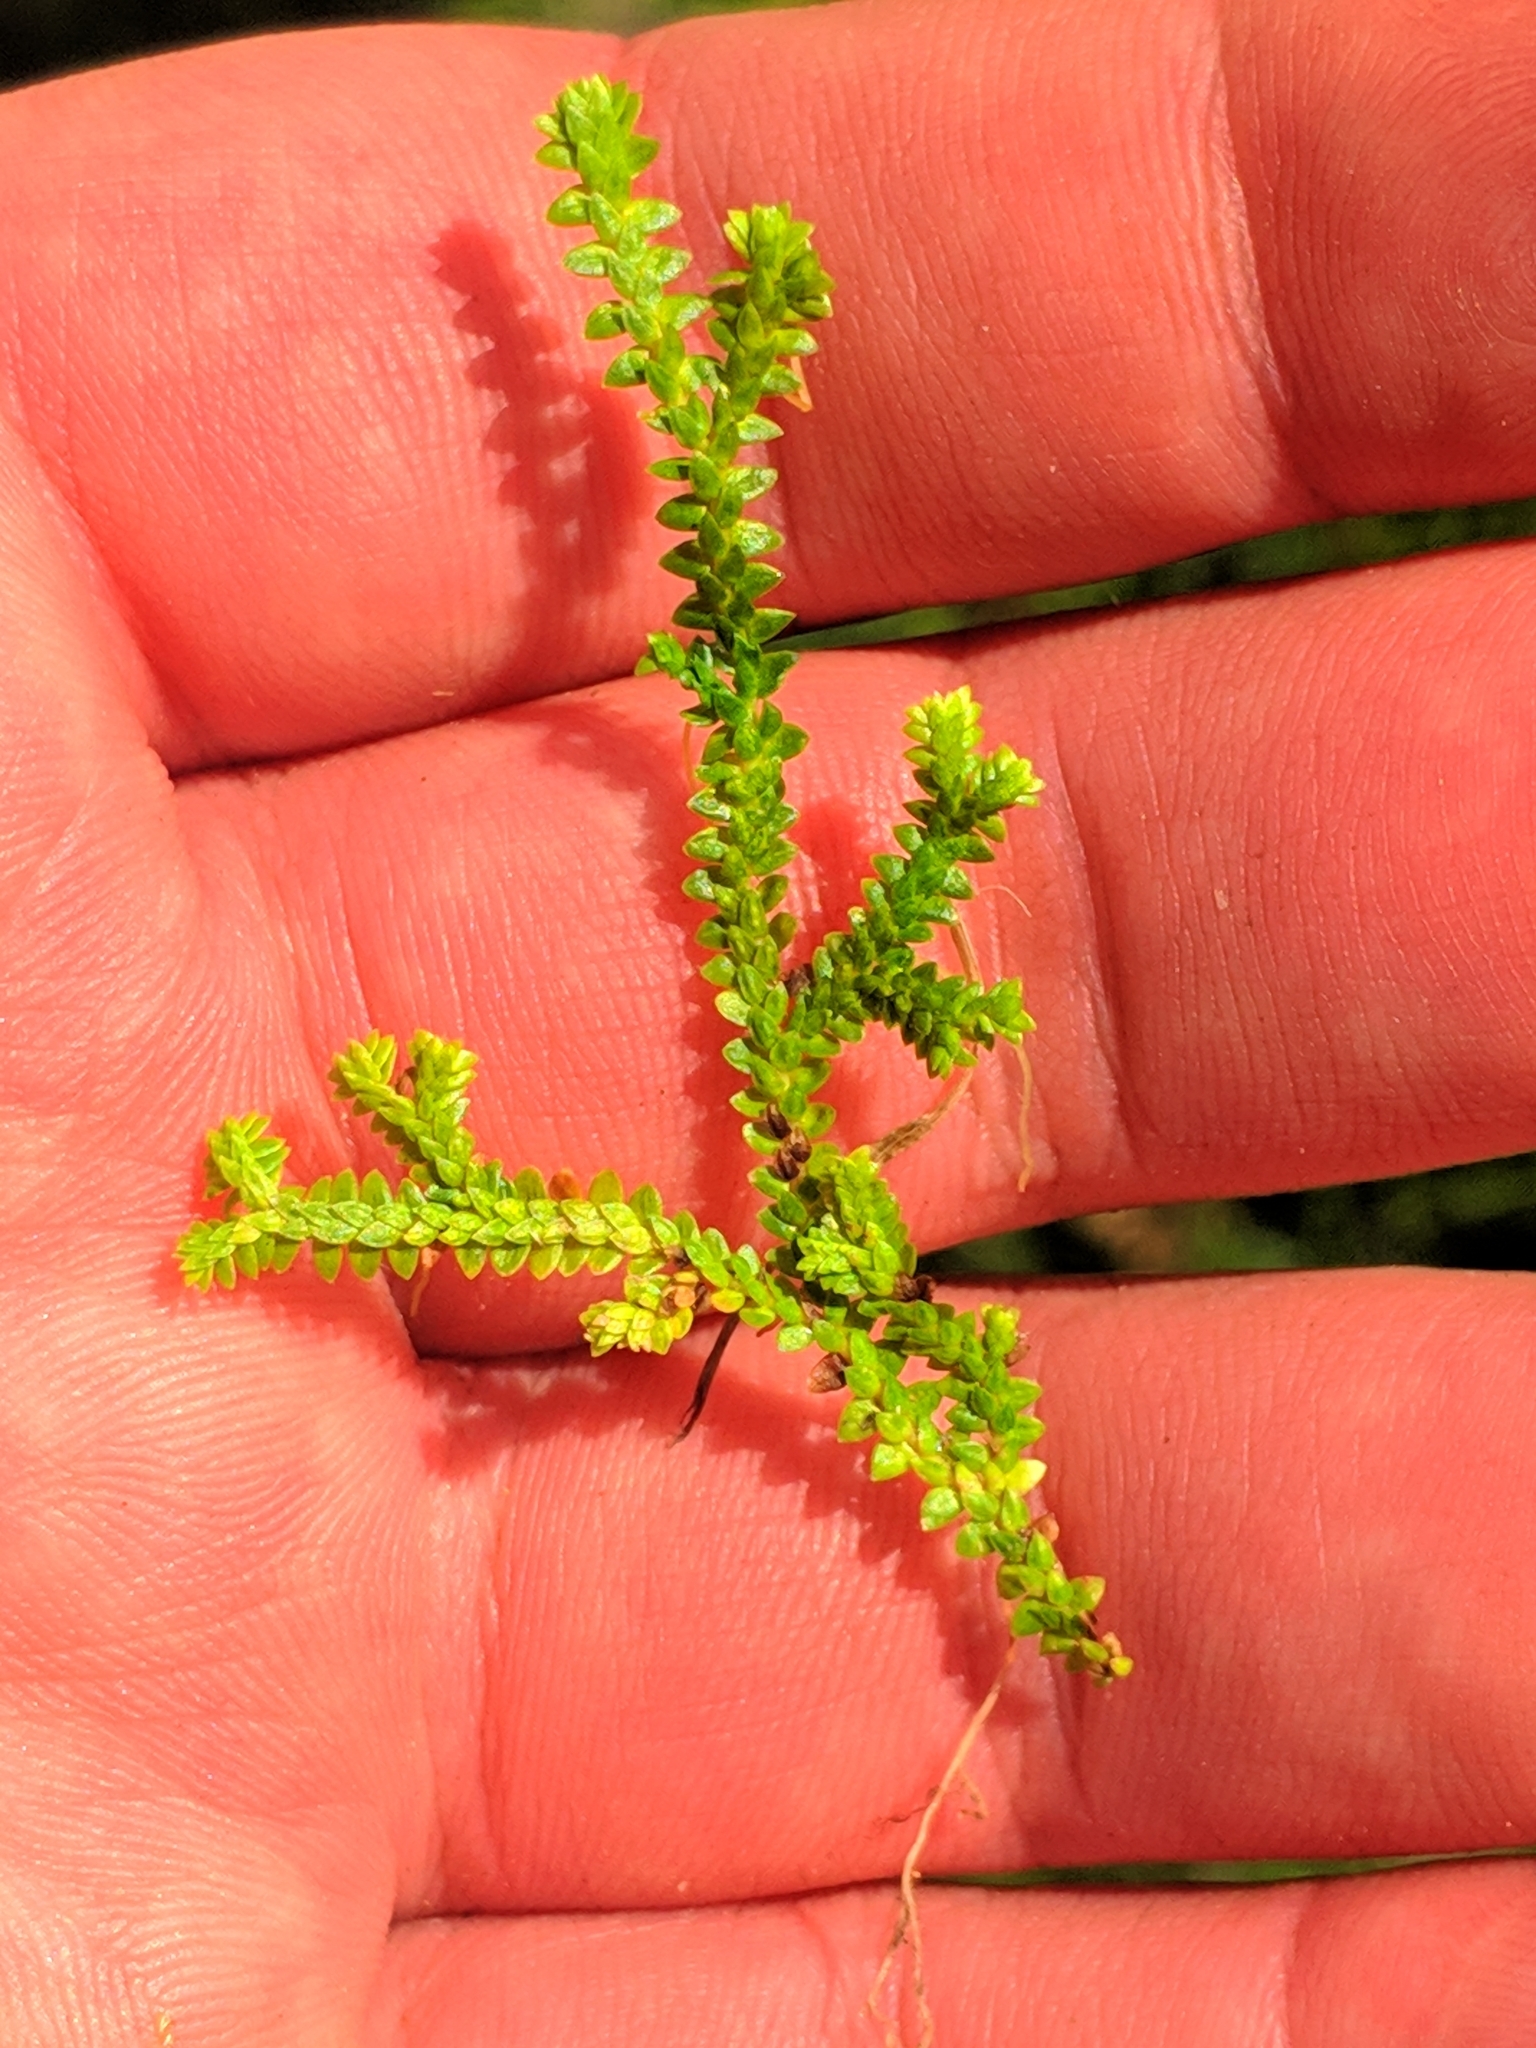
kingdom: Plantae
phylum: Tracheophyta
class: Lycopodiopsida
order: Selaginellales
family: Selaginellaceae
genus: Selaginella
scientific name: Selaginella helvetica
